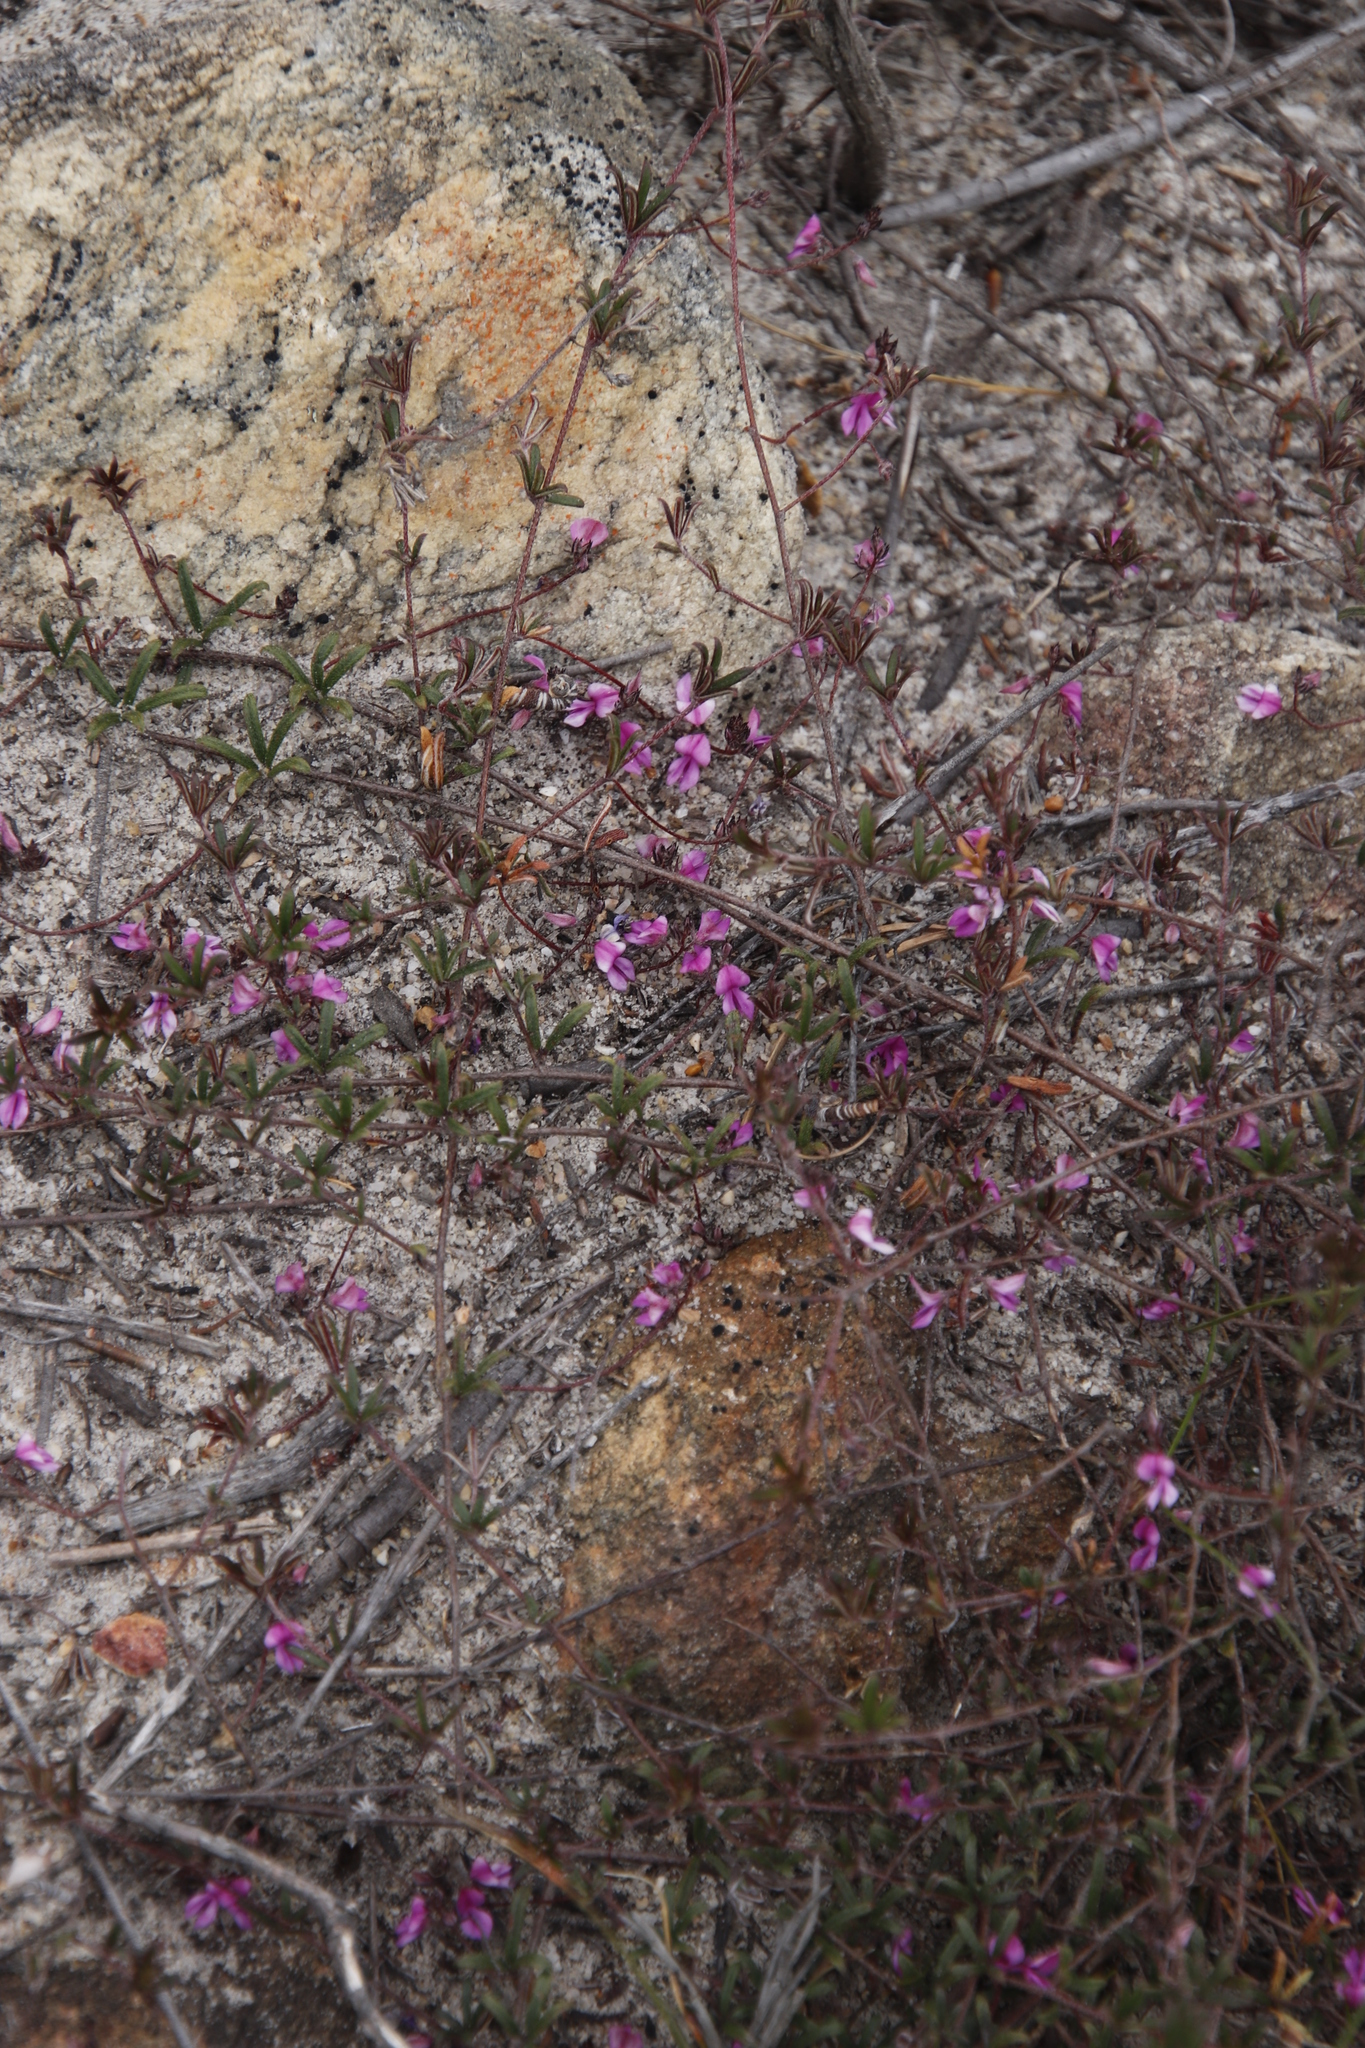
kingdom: Plantae
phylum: Tracheophyta
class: Magnoliopsida
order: Fabales
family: Fabaceae
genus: Indigofera
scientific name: Indigofera mischocarpa
